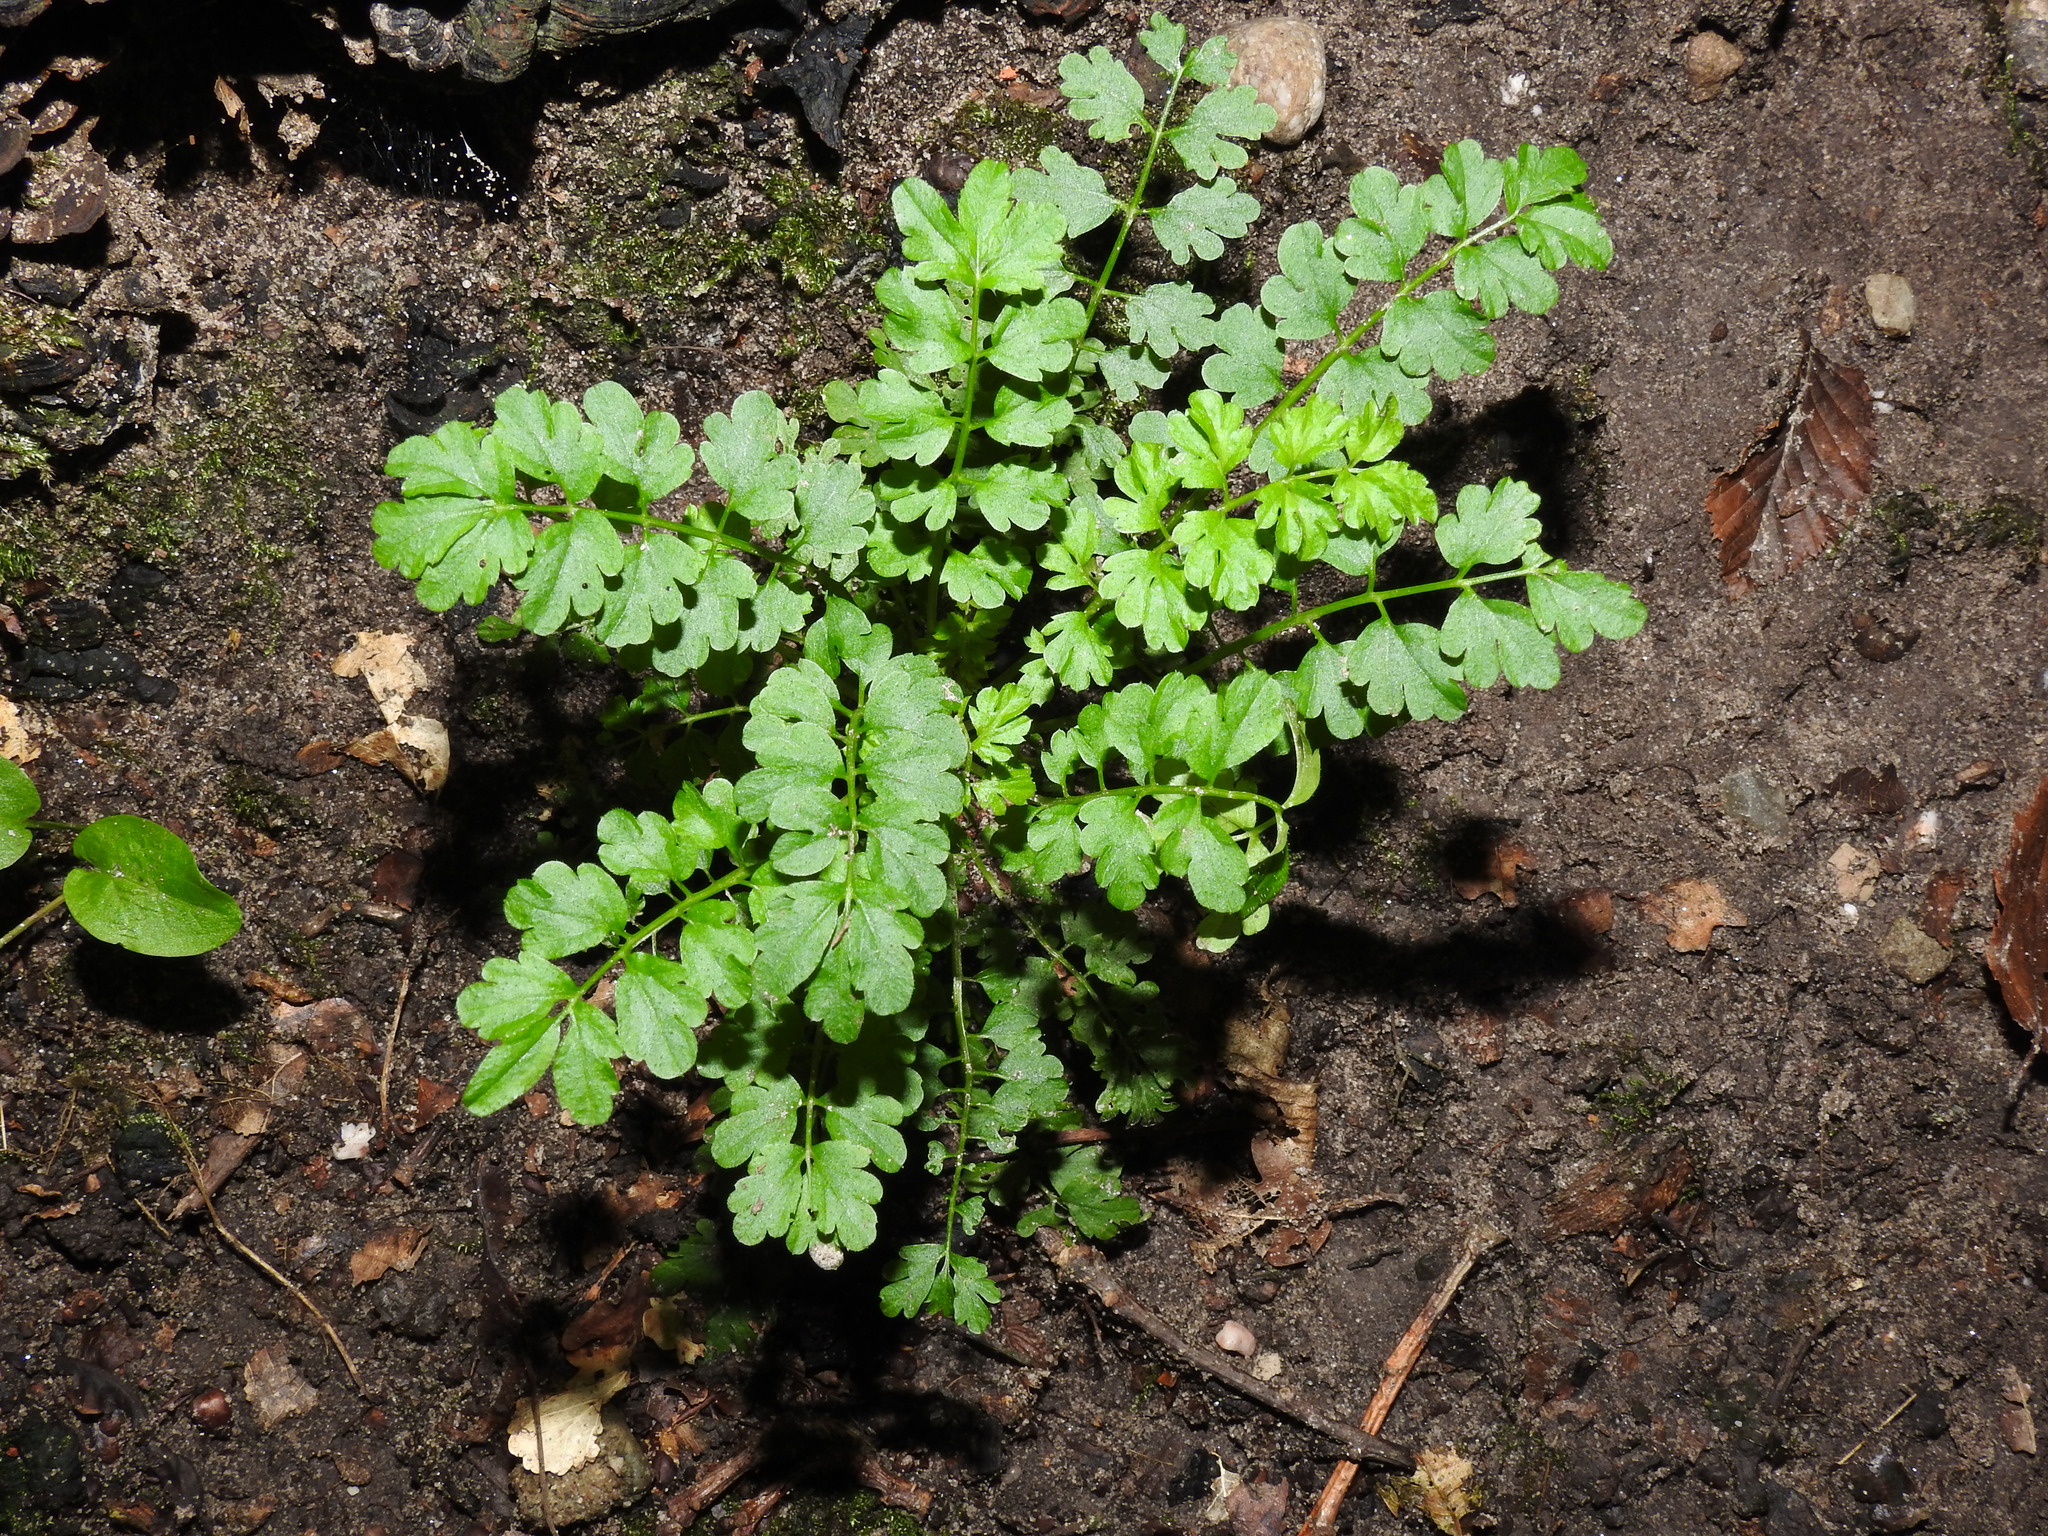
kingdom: Plantae
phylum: Tracheophyta
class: Magnoliopsida
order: Brassicales
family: Brassicaceae
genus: Cardamine
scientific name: Cardamine impatiens
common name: Narrow-leaved bitter-cress
